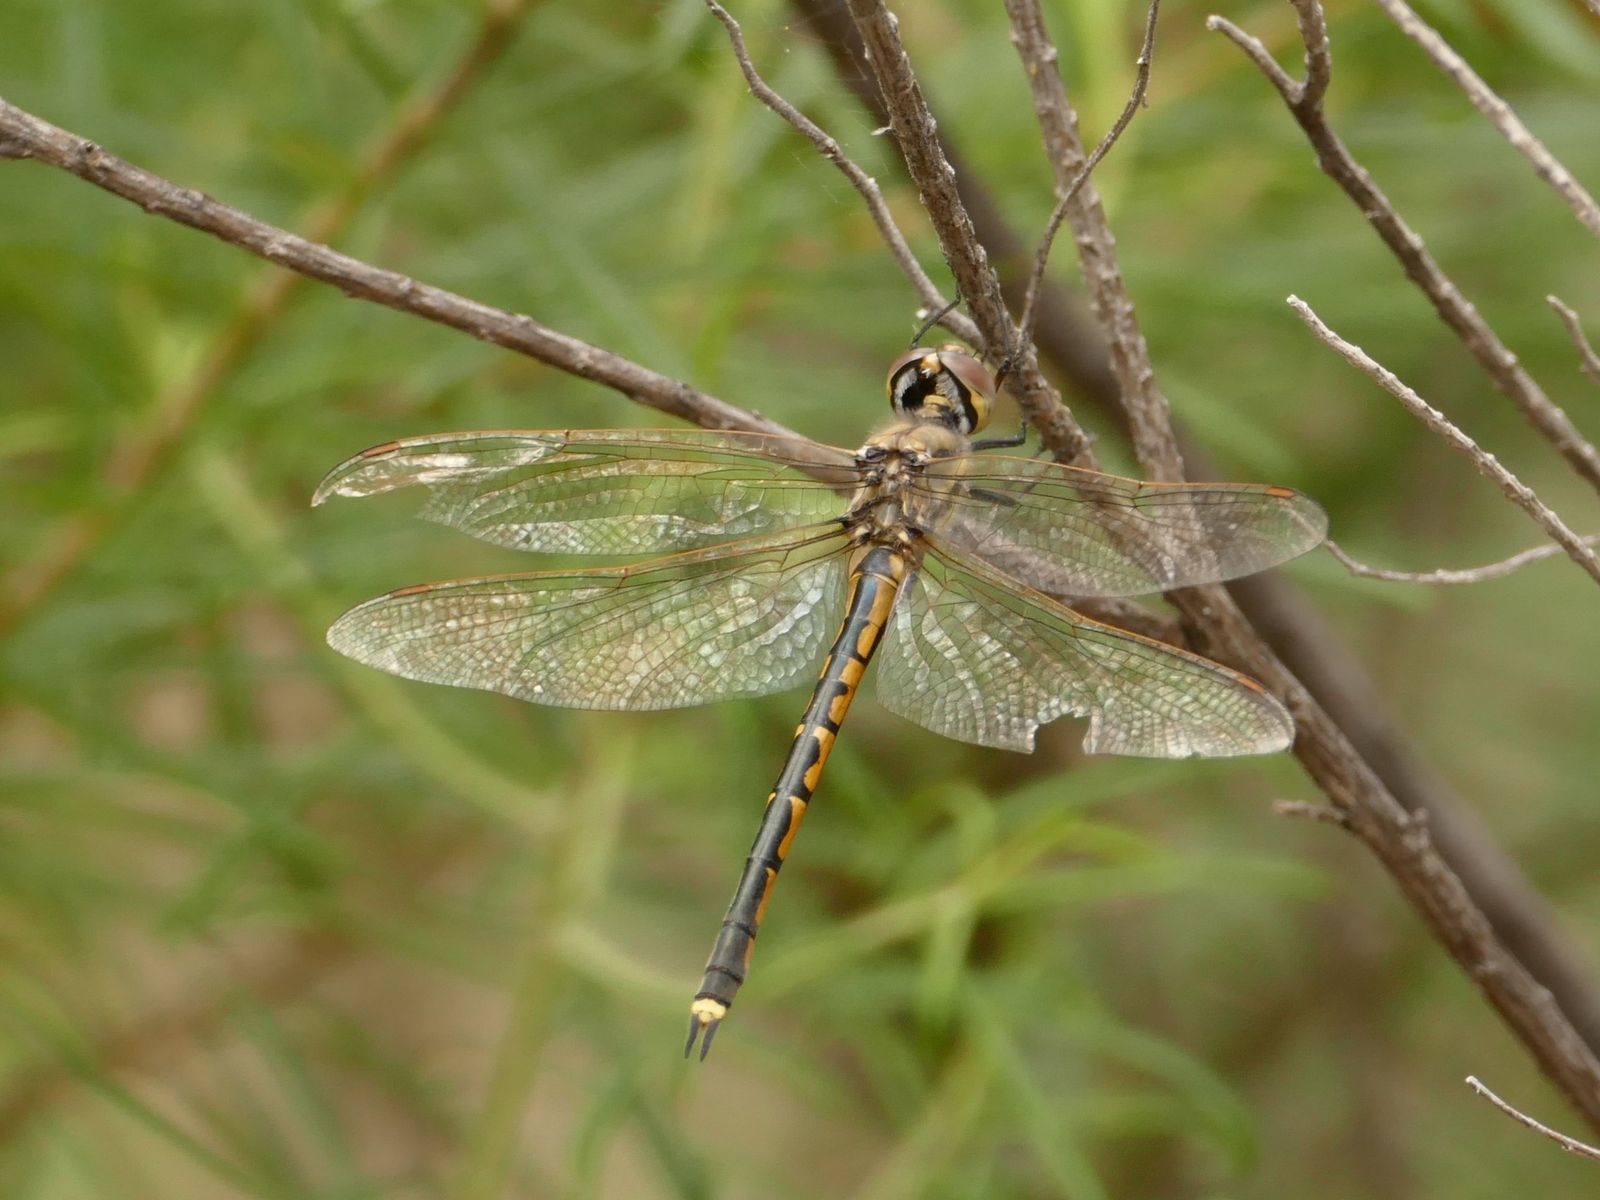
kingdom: Animalia
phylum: Arthropoda
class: Insecta
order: Odonata
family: Corduliidae
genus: Hemicordulia
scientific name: Hemicordulia tau
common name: Tau emerald
